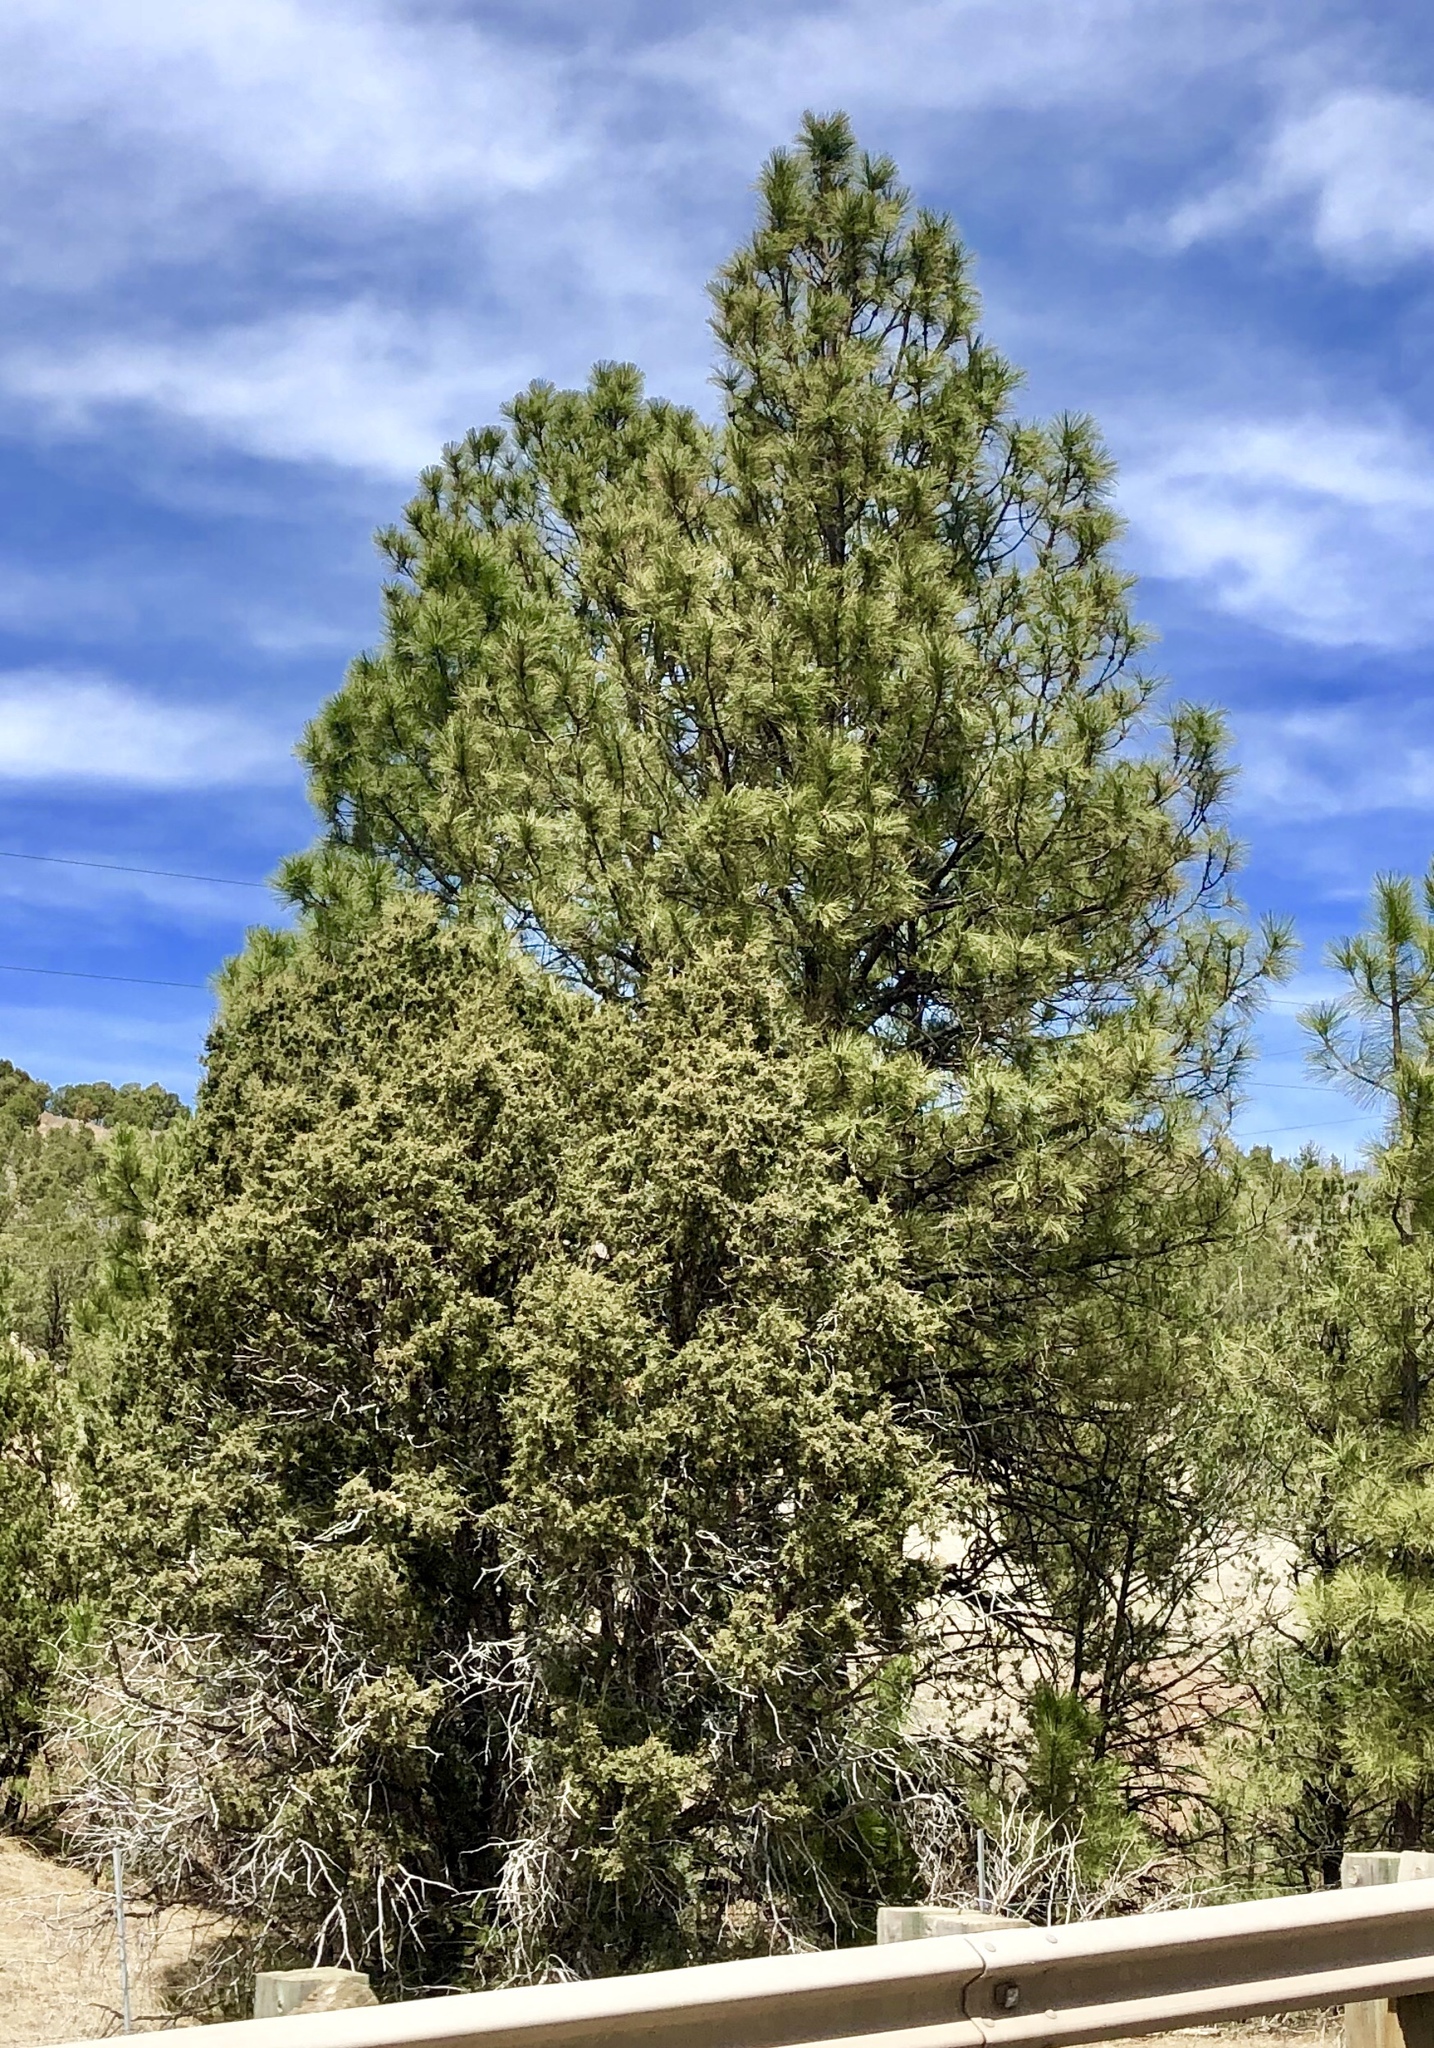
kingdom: Plantae
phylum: Tracheophyta
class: Pinopsida
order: Pinales
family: Pinaceae
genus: Pinus
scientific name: Pinus ponderosa
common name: Western yellow-pine
